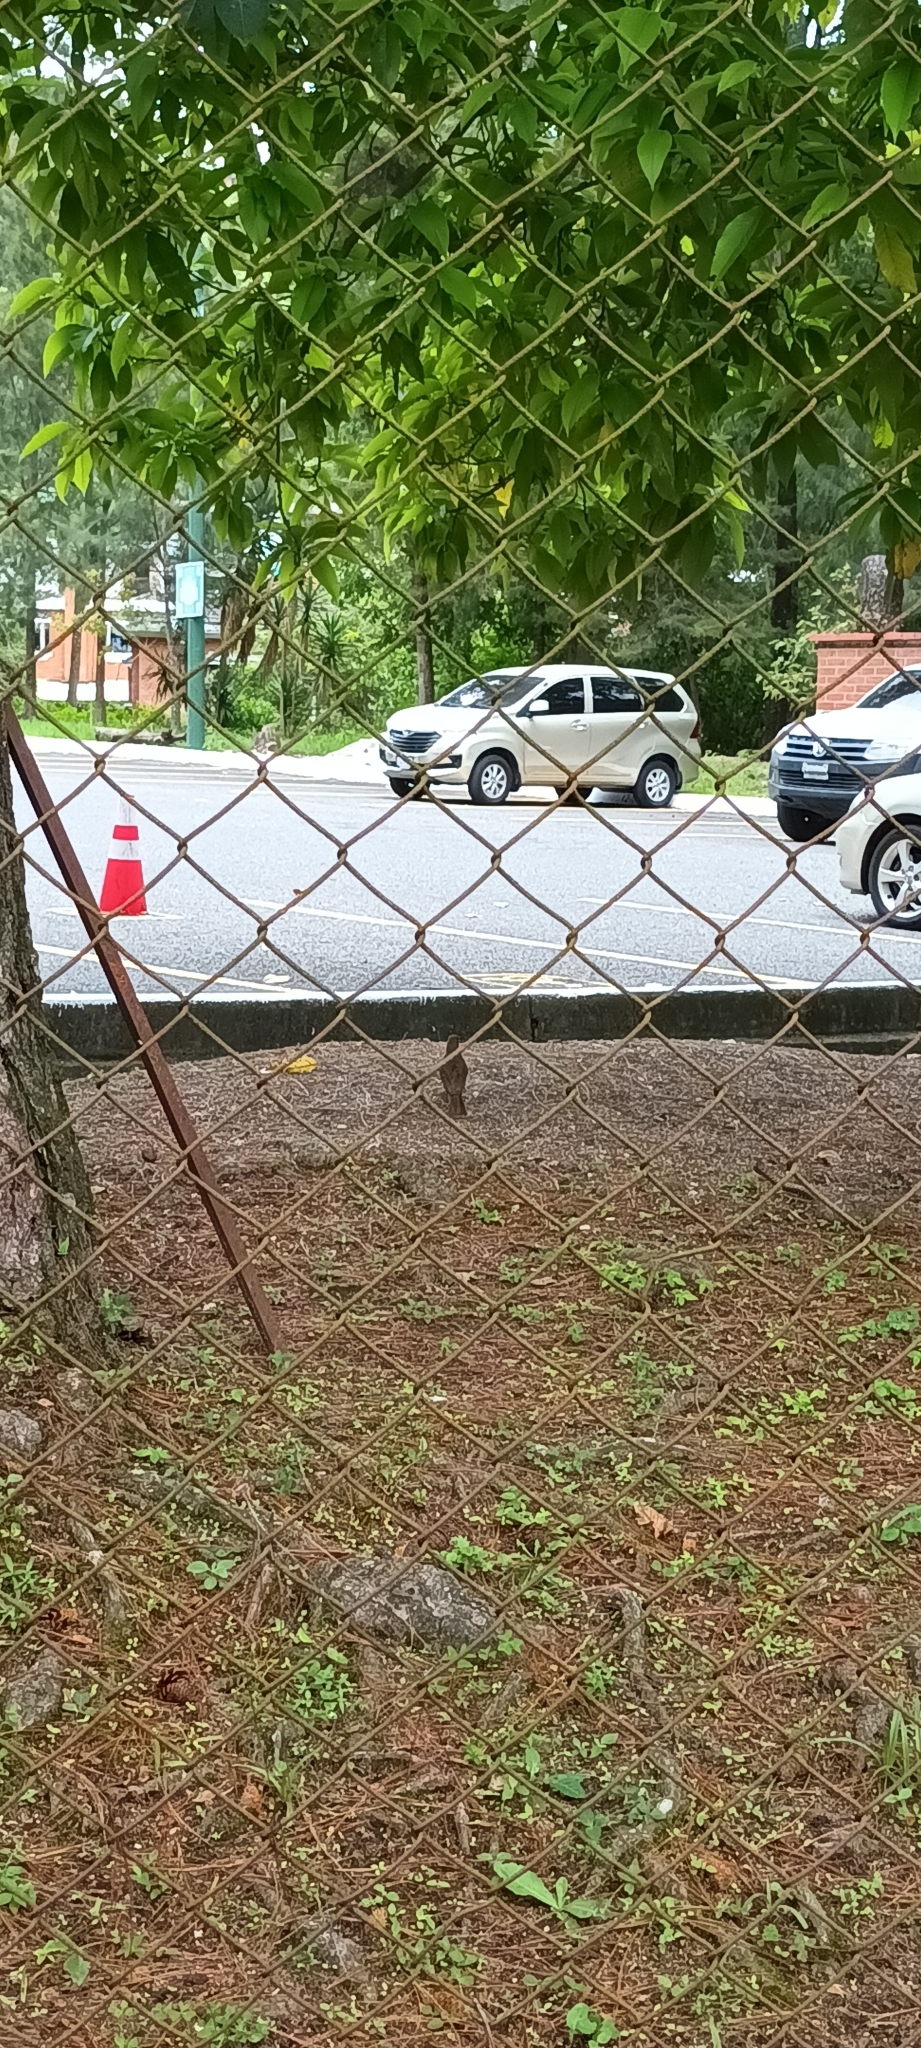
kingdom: Animalia
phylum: Chordata
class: Aves
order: Passeriformes
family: Turdidae
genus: Turdus
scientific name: Turdus grayi
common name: Clay-colored thrush
